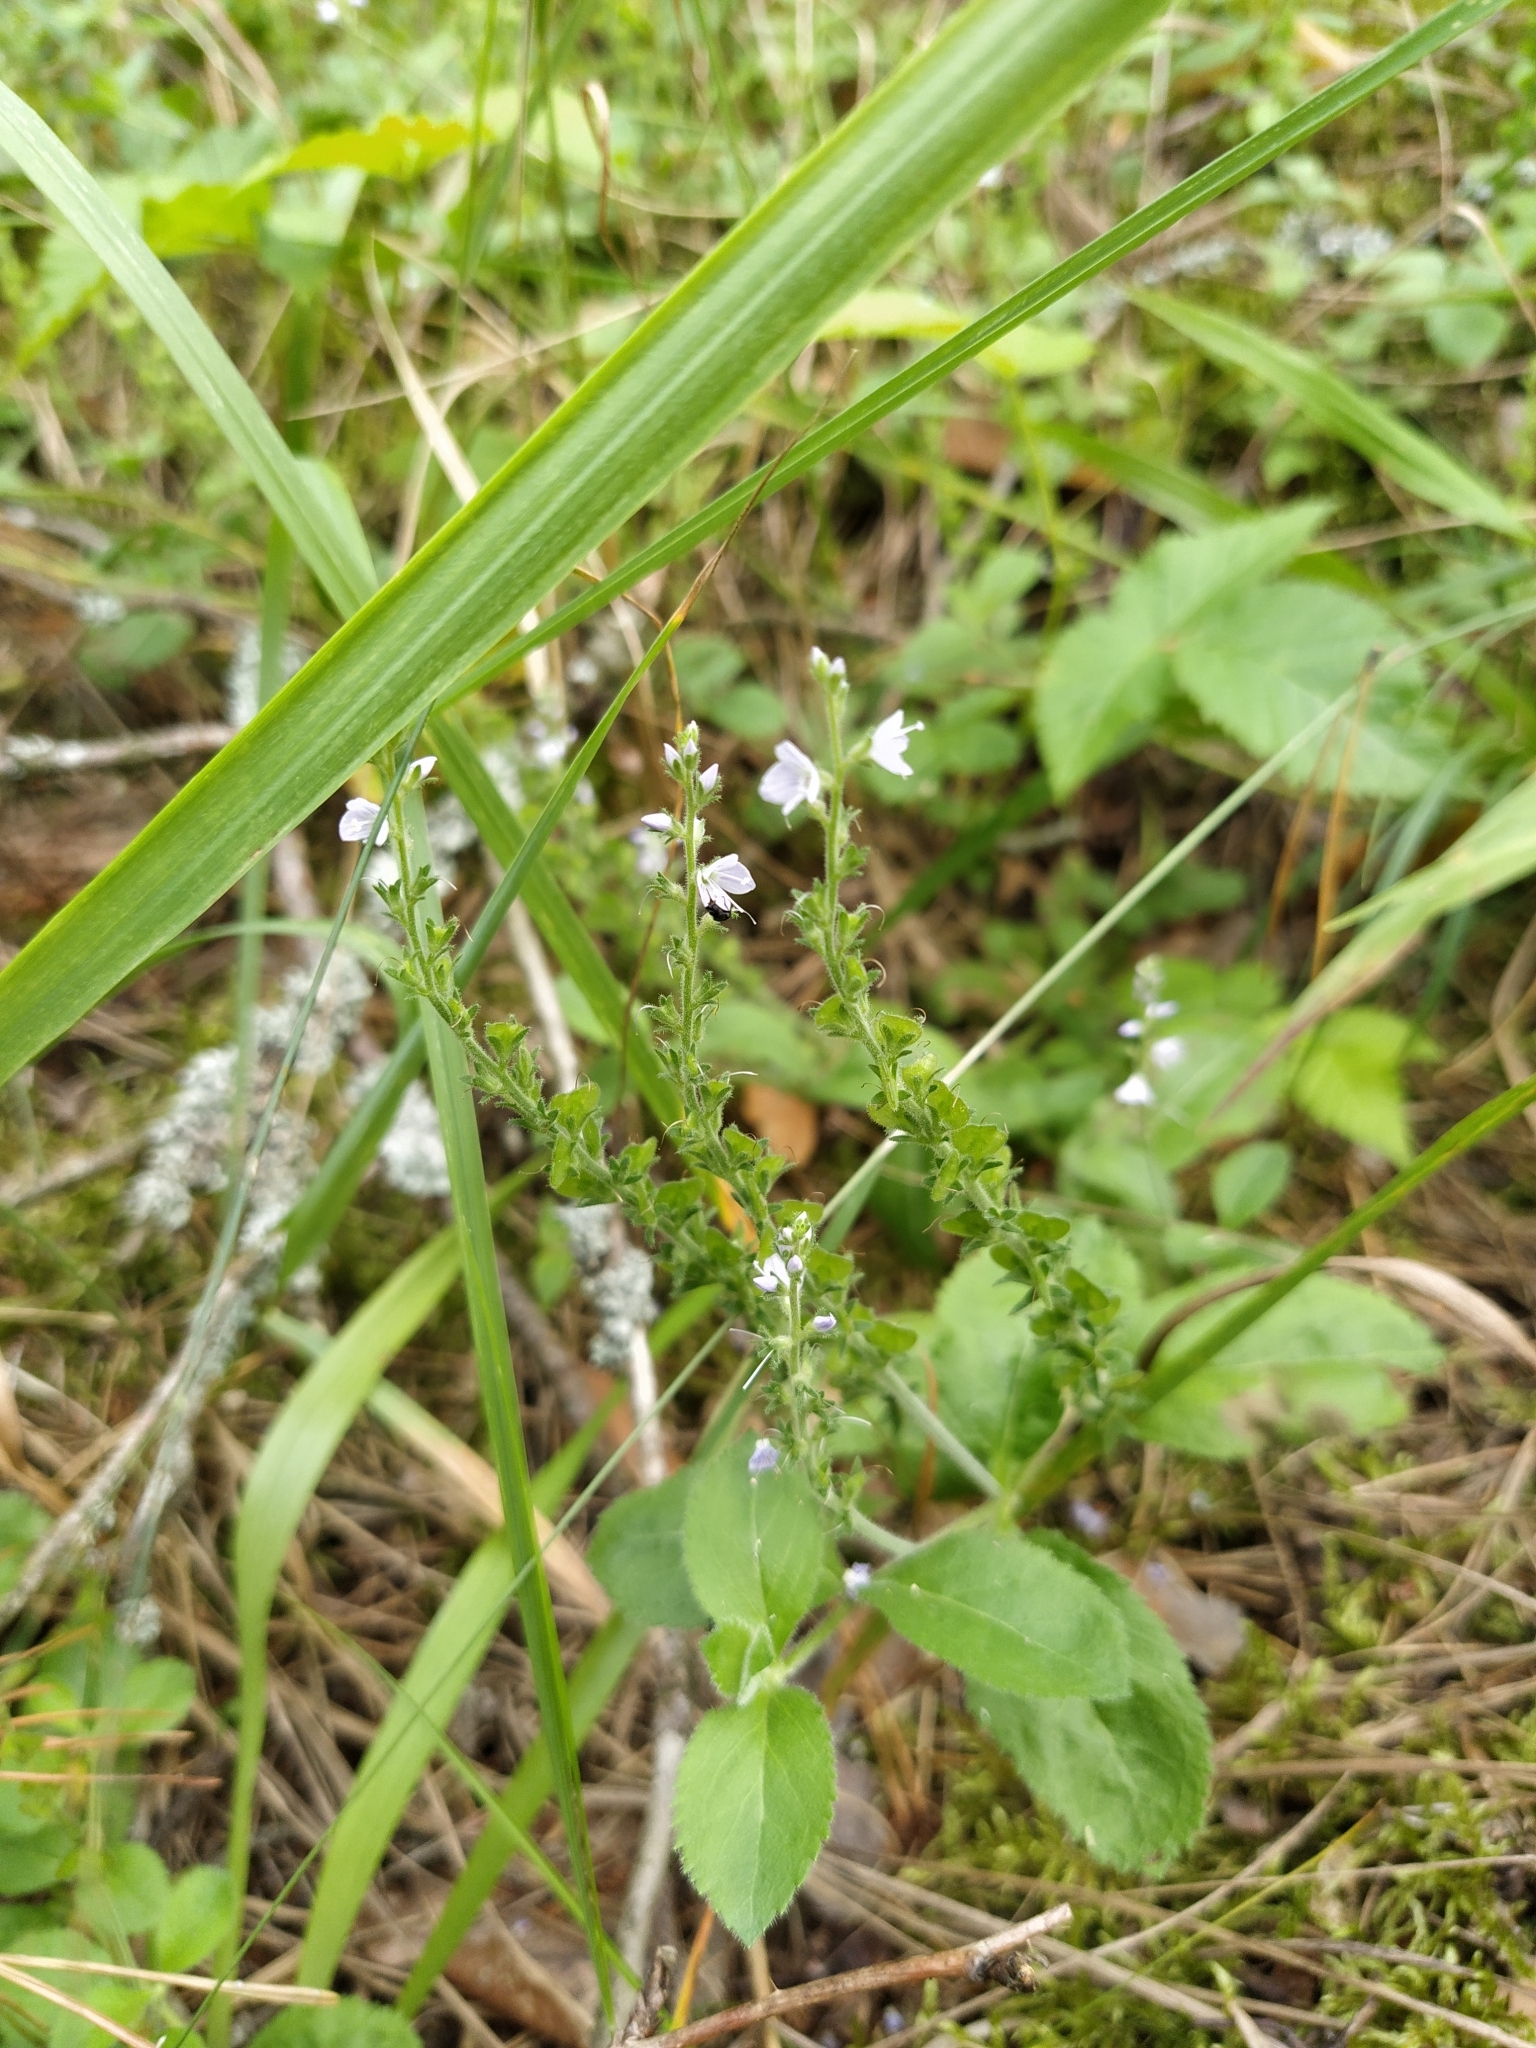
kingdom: Plantae
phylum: Tracheophyta
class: Magnoliopsida
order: Lamiales
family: Plantaginaceae
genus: Veronica
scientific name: Veronica officinalis
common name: Common speedwell
